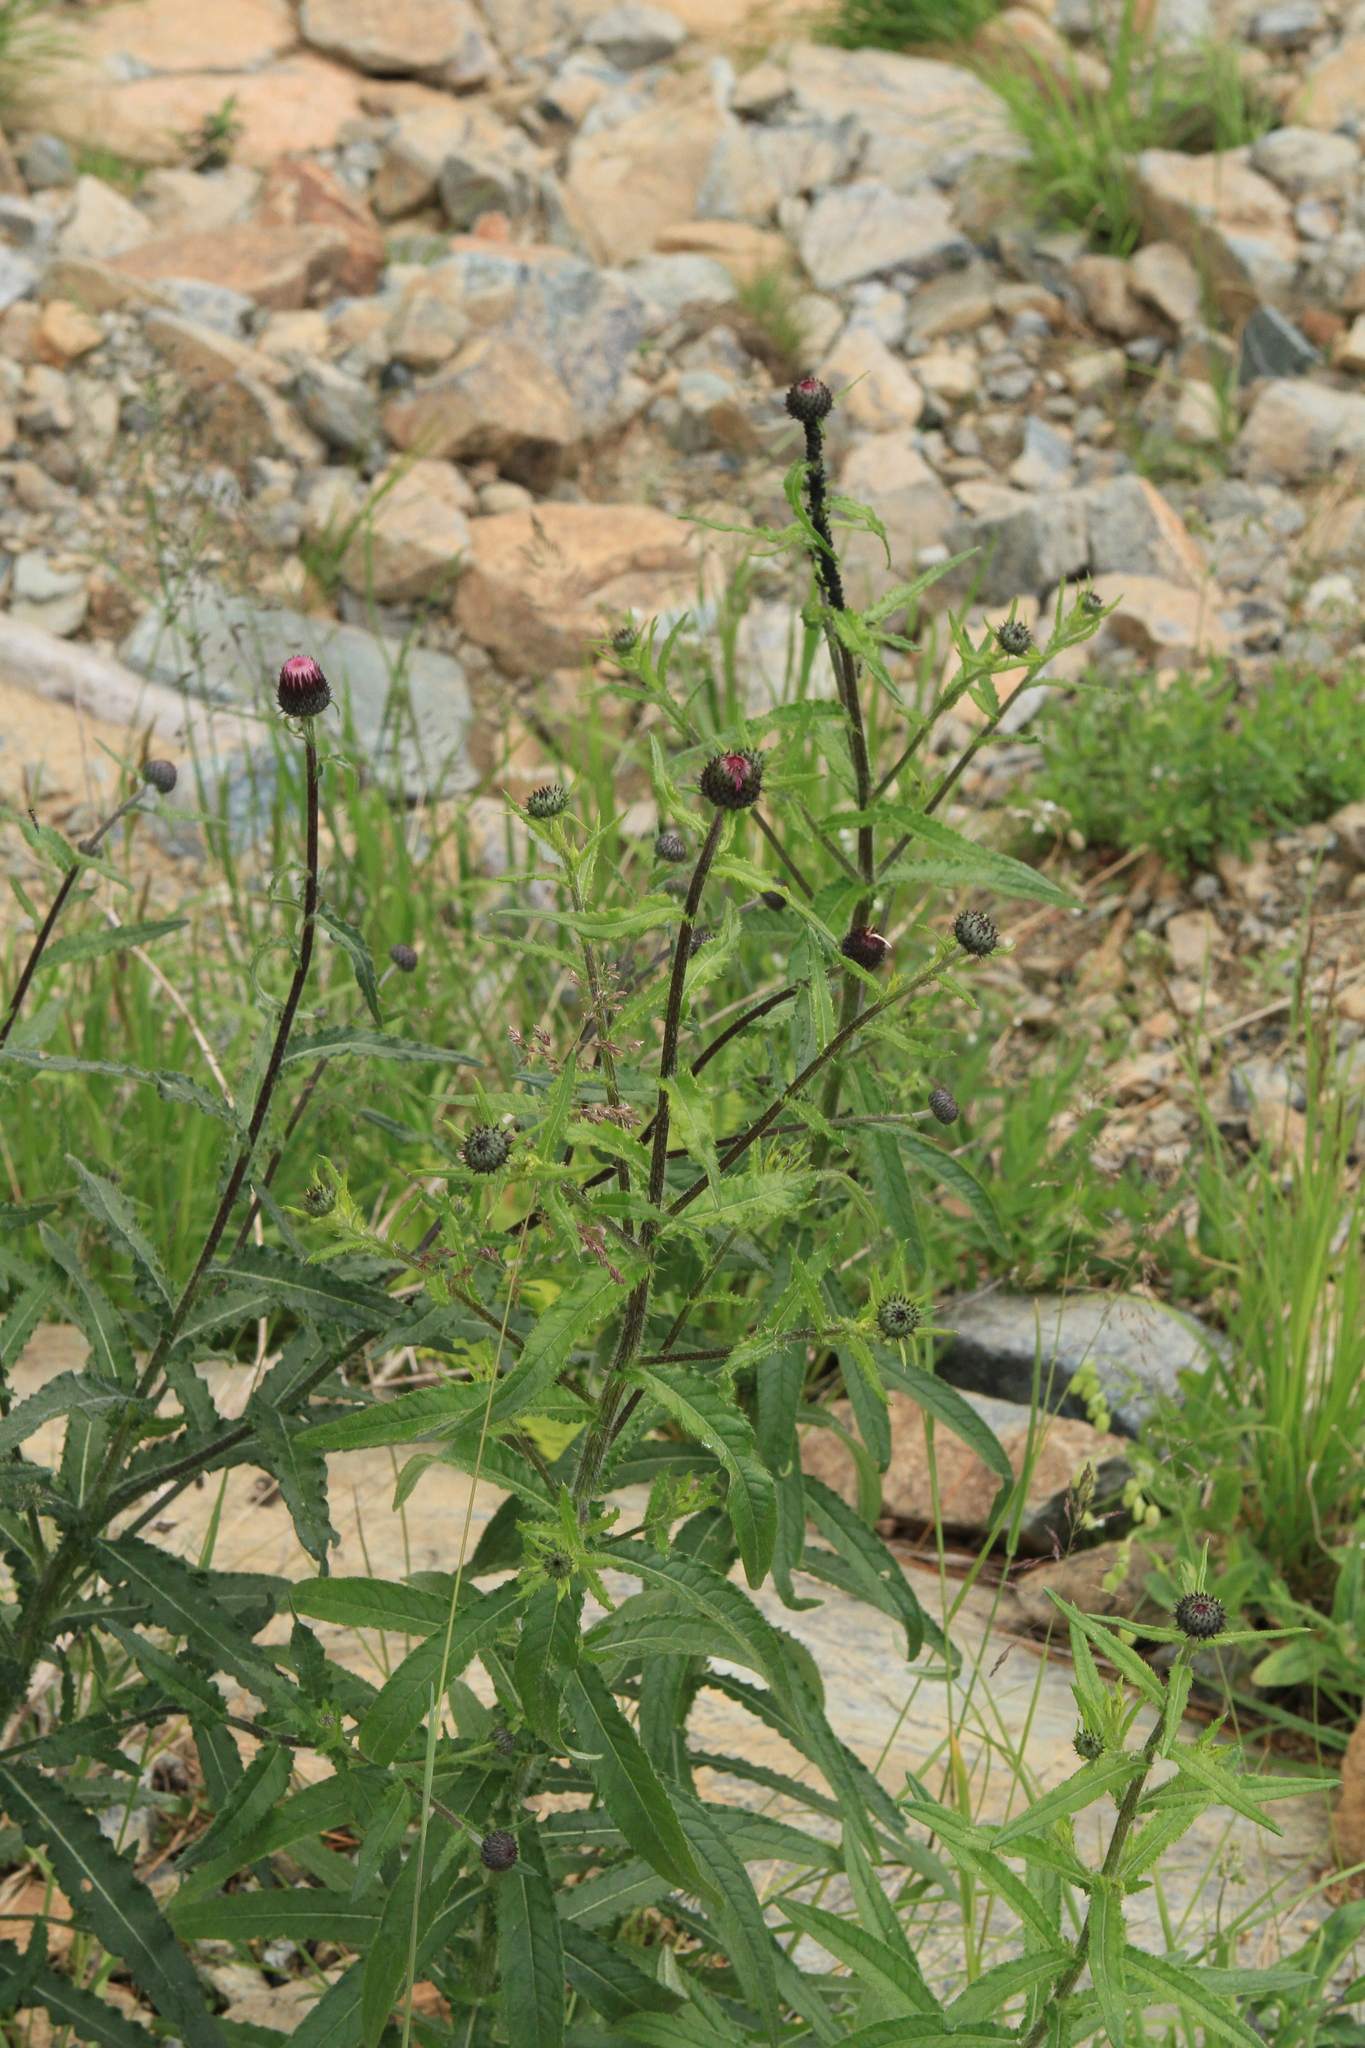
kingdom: Plantae
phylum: Tracheophyta
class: Magnoliopsida
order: Asterales
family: Asteraceae
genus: Cirsium
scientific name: Cirsium serratuloides
